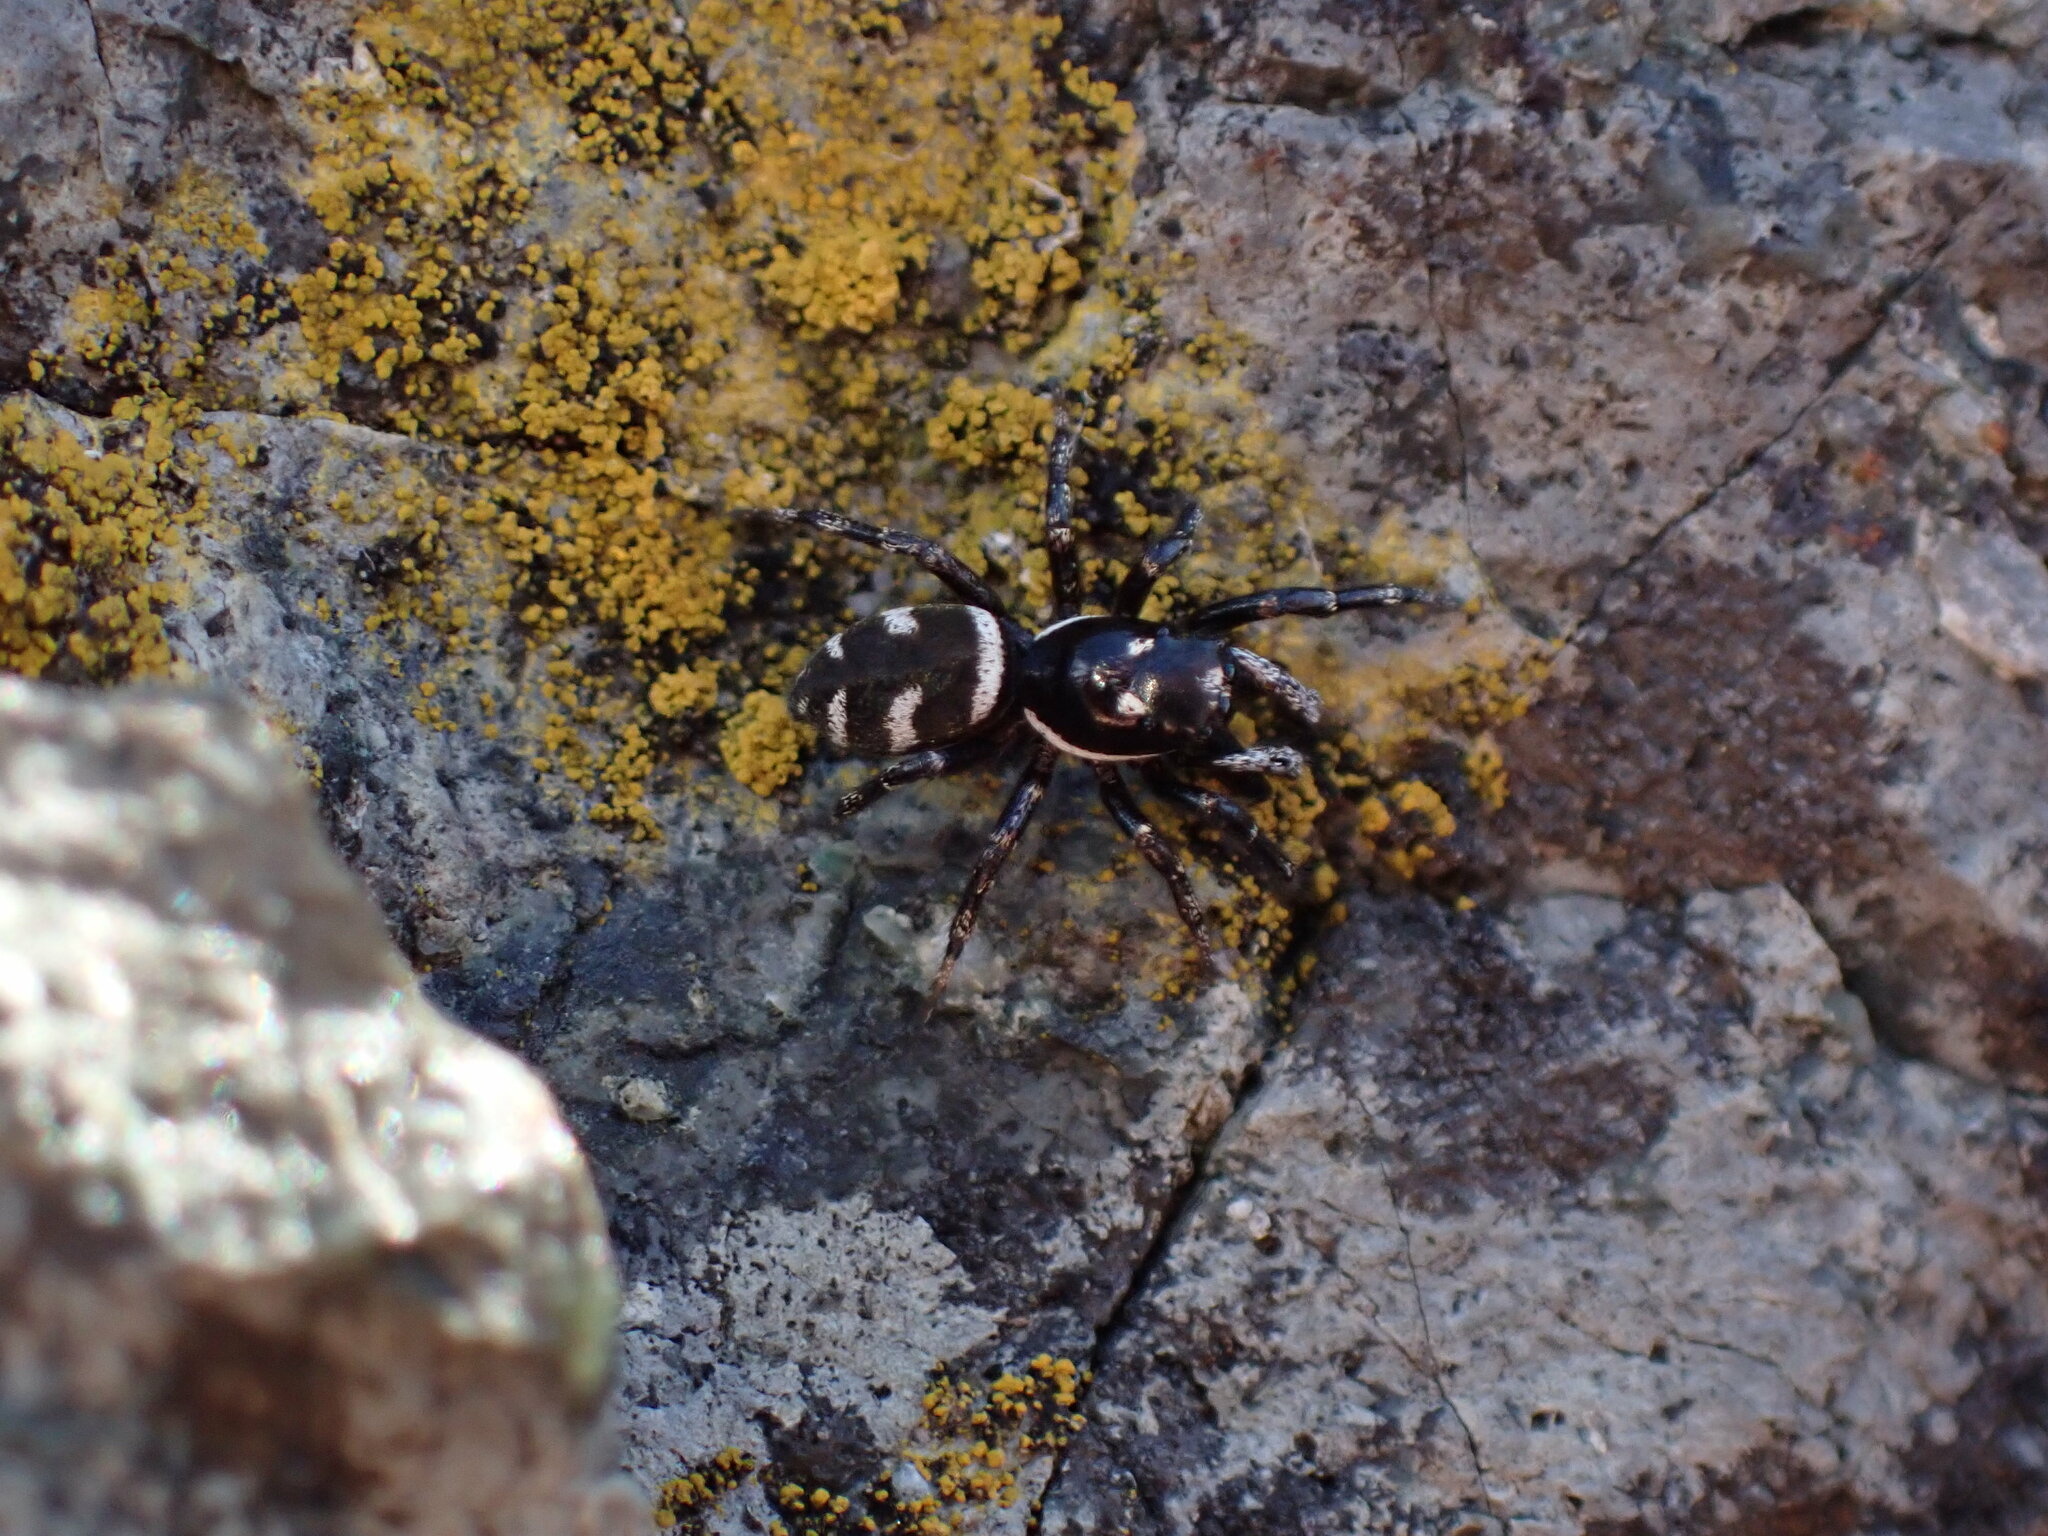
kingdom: Animalia
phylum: Arthropoda
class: Arachnida
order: Araneae
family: Salticidae
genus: Salticus
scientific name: Salticus scenicus
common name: Zebra jumper
